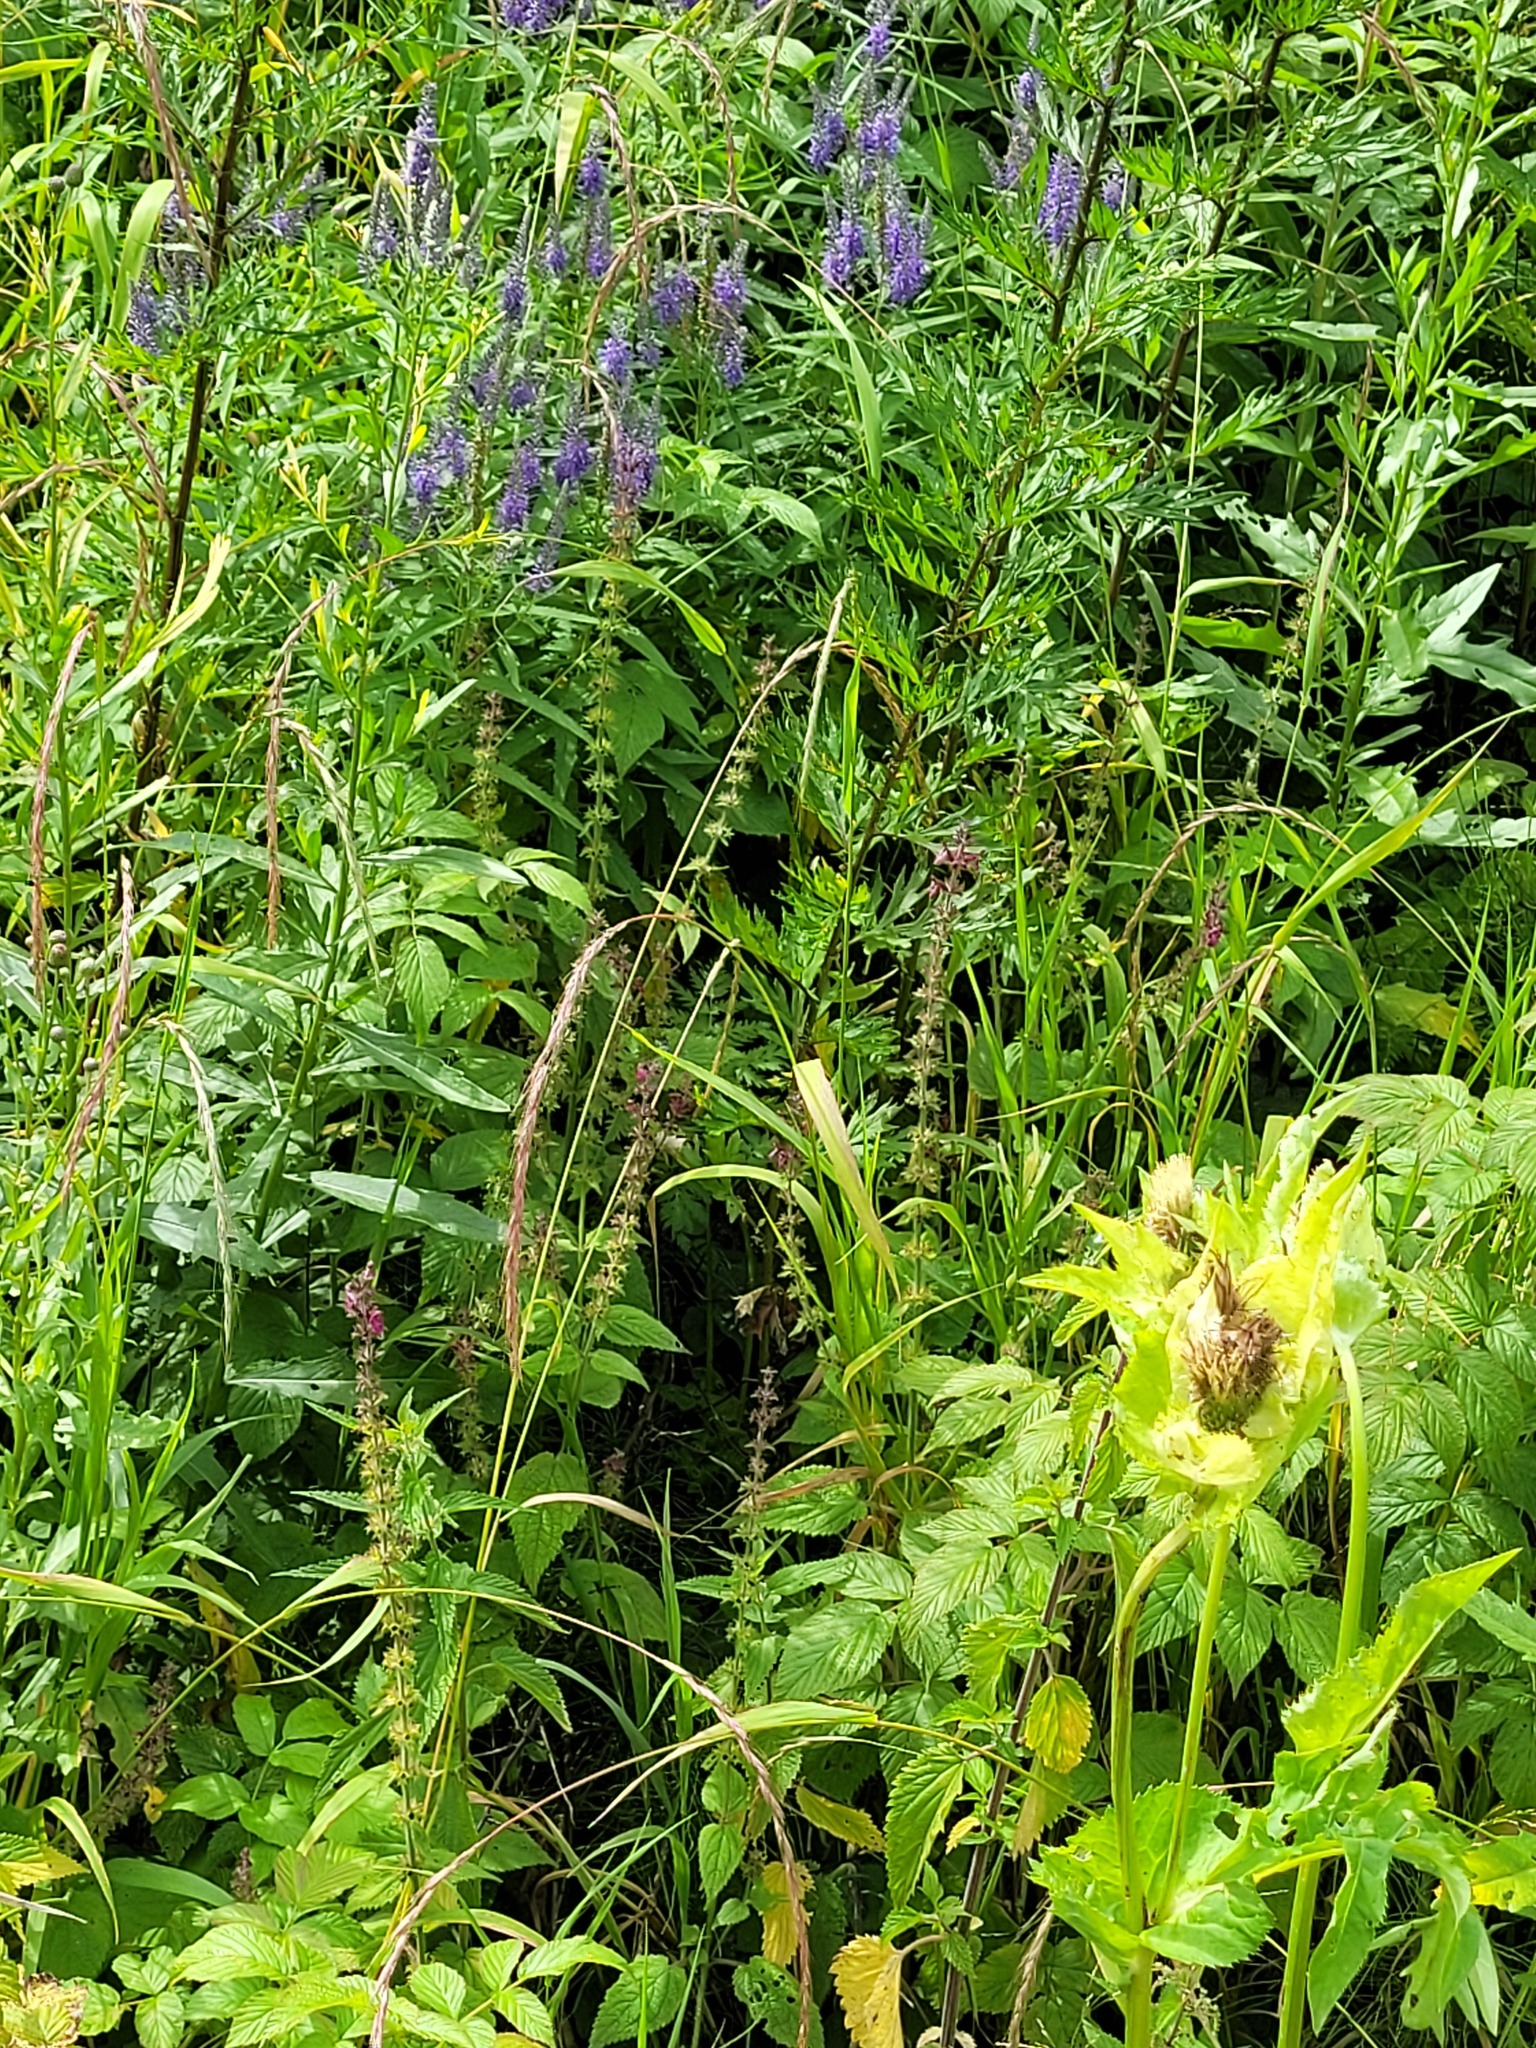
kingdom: Plantae
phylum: Tracheophyta
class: Magnoliopsida
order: Lamiales
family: Lamiaceae
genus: Stachys
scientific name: Stachys sylvatica
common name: Hedge woundwort
